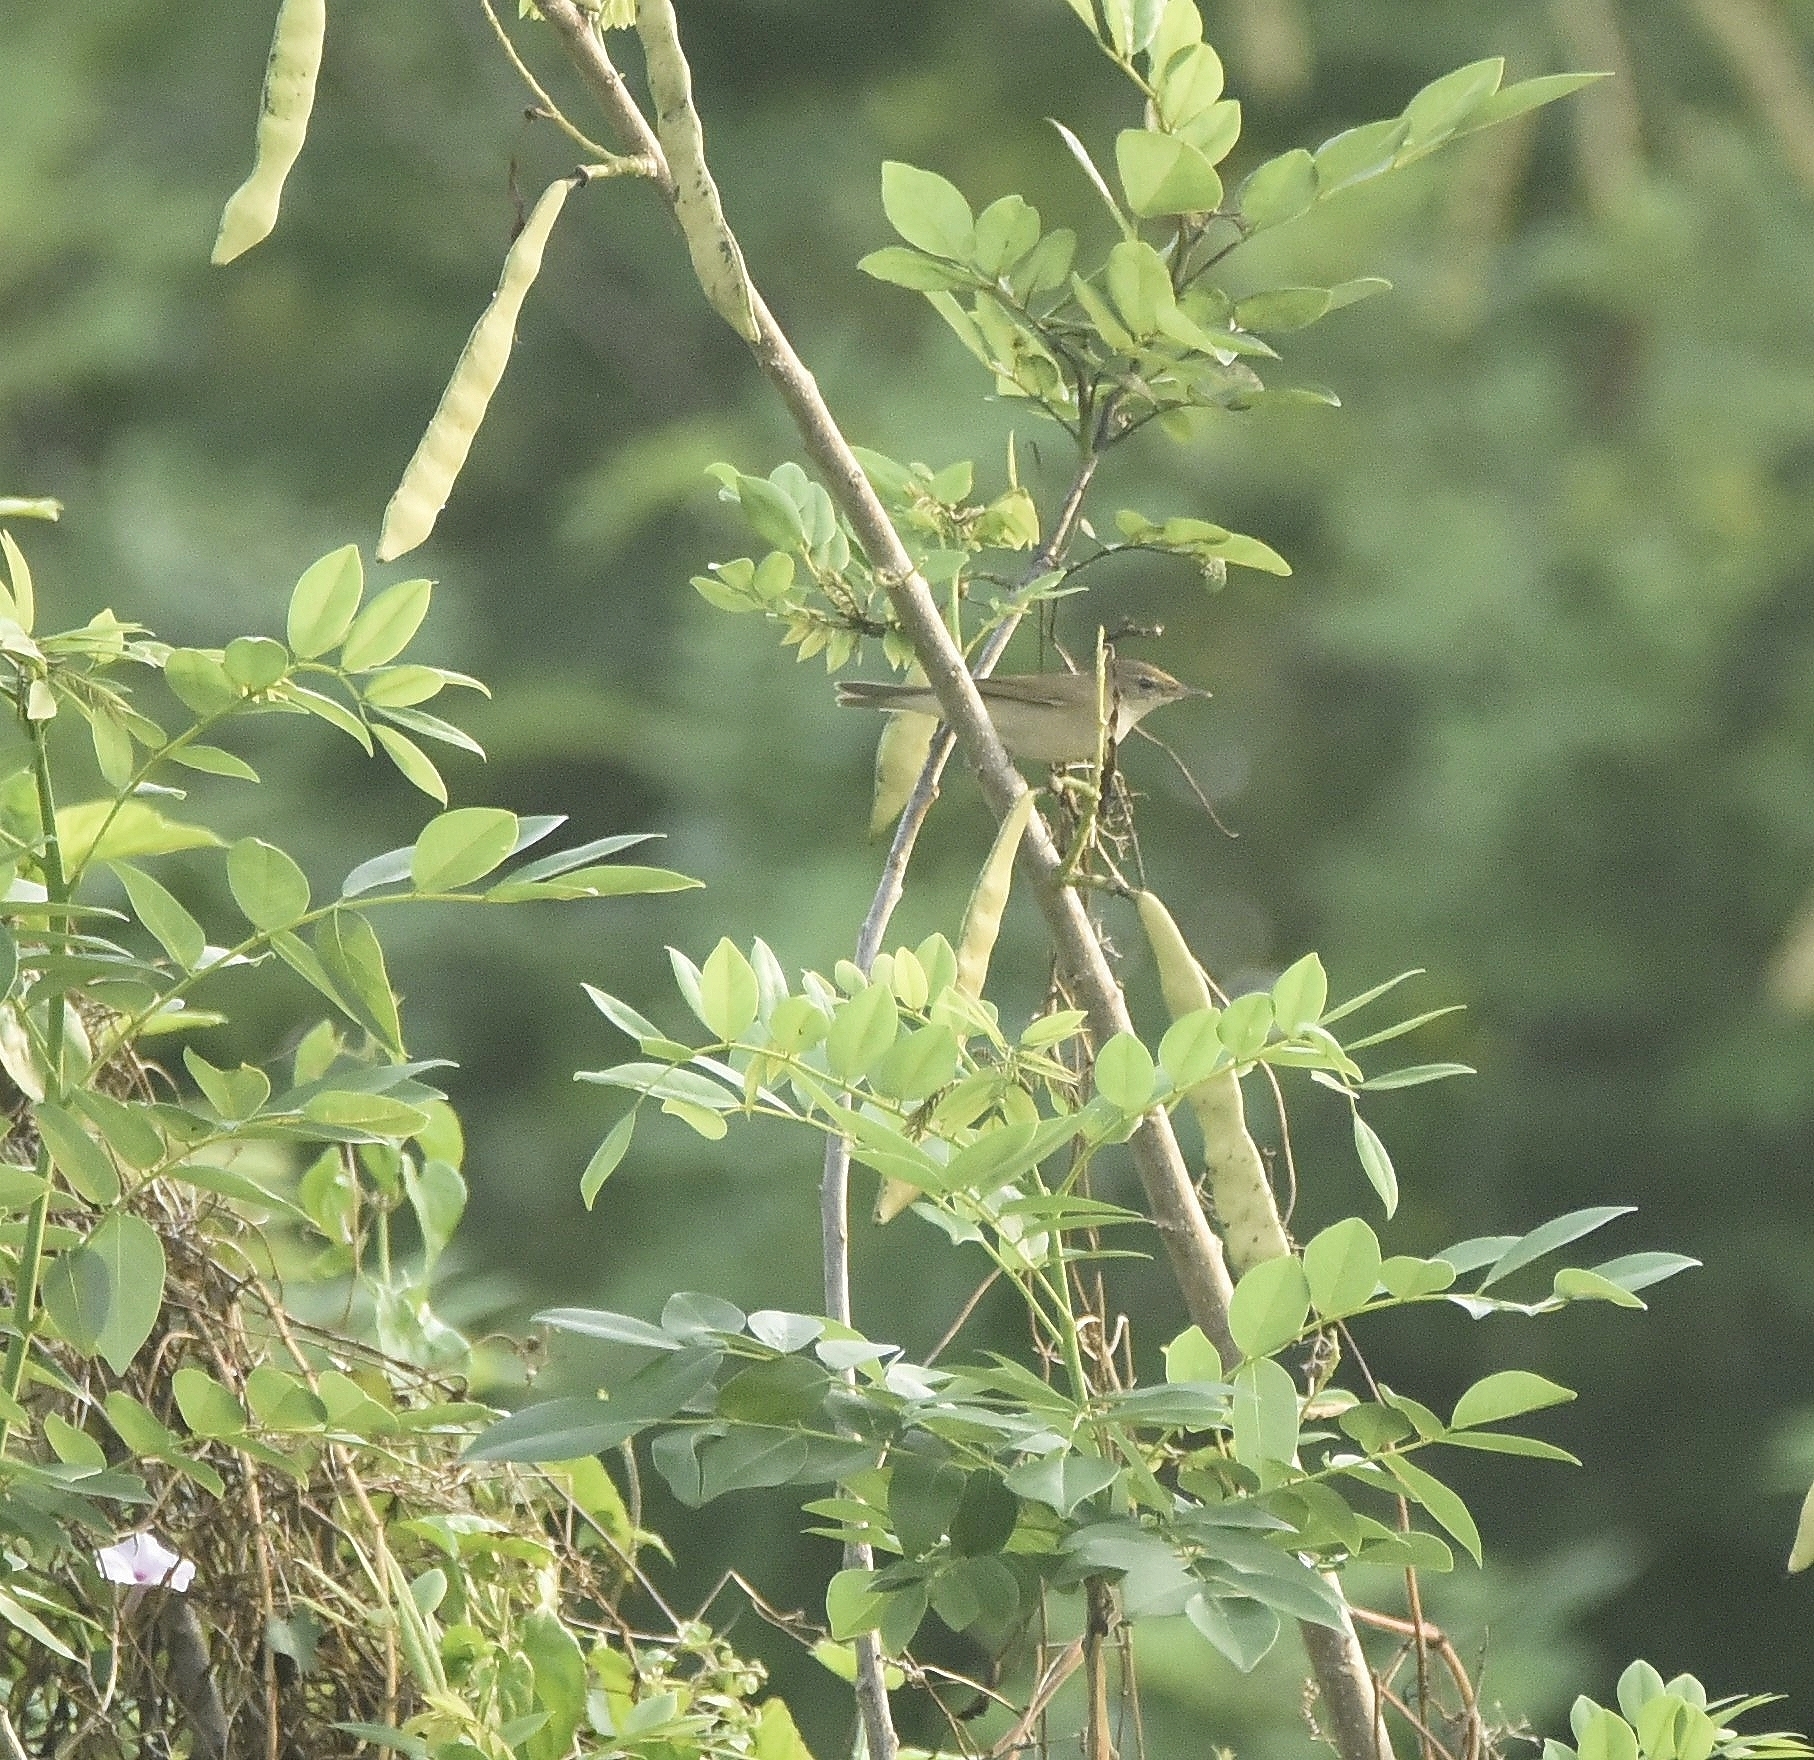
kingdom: Animalia
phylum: Chordata
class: Aves
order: Passeriformes
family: Acrocephalidae
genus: Acrocephalus
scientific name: Acrocephalus dumetorum
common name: Blyth's reed warbler
